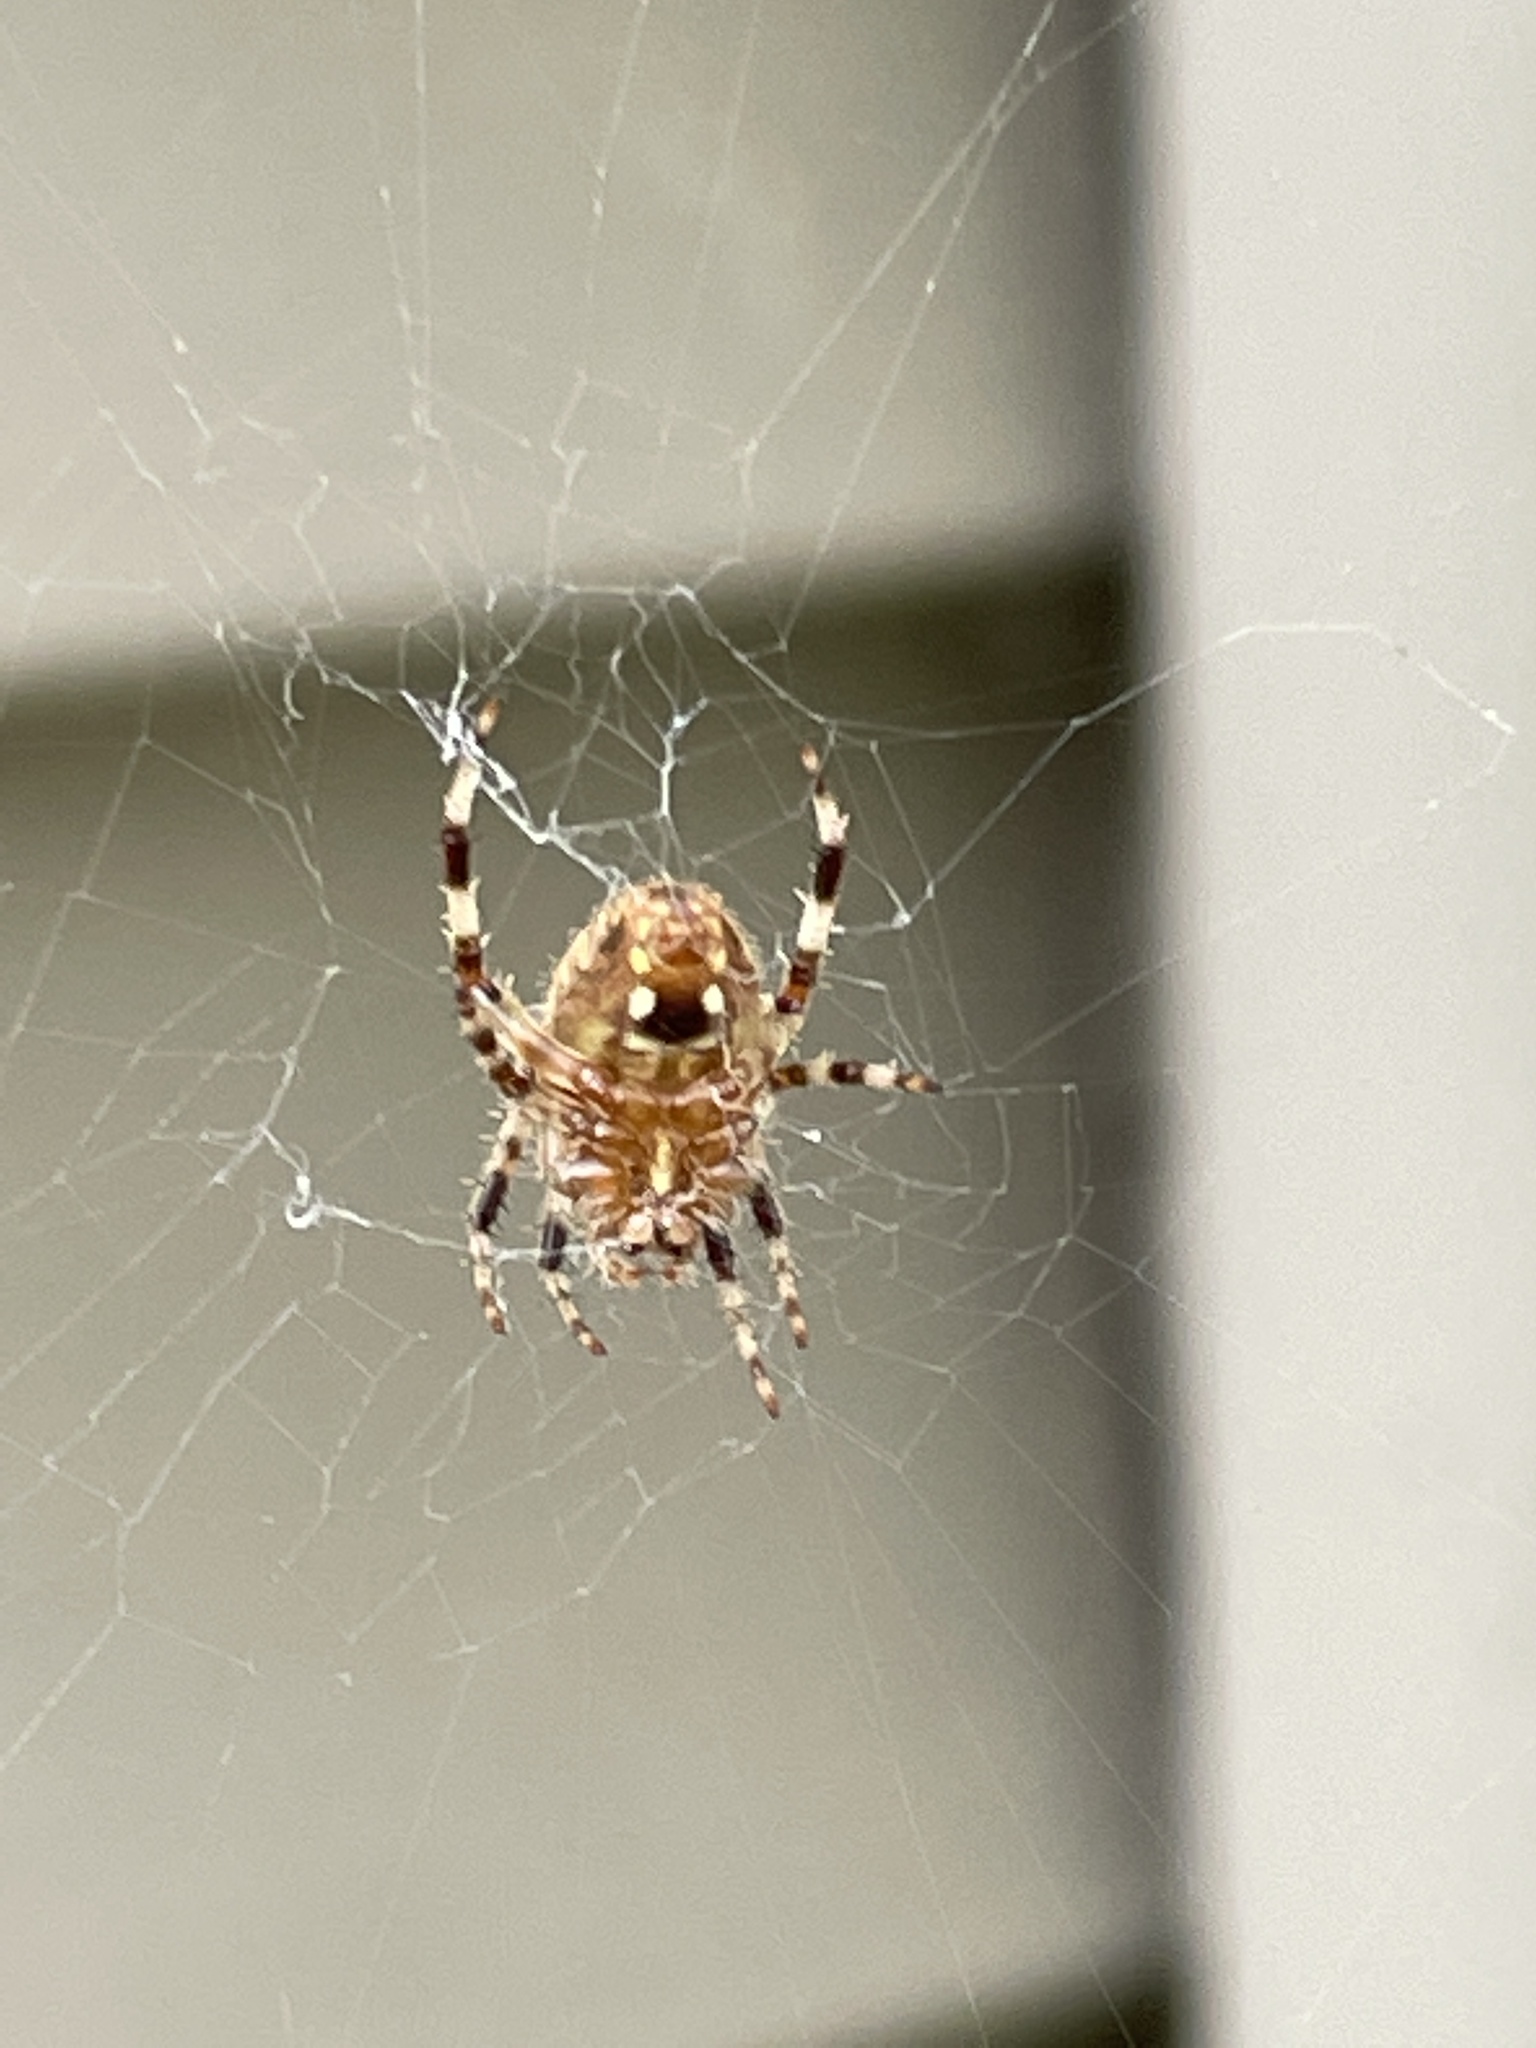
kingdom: Animalia
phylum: Arthropoda
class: Arachnida
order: Araneae
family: Araneidae
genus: Neoscona
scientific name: Neoscona crucifera
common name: Spotted orbweaver
